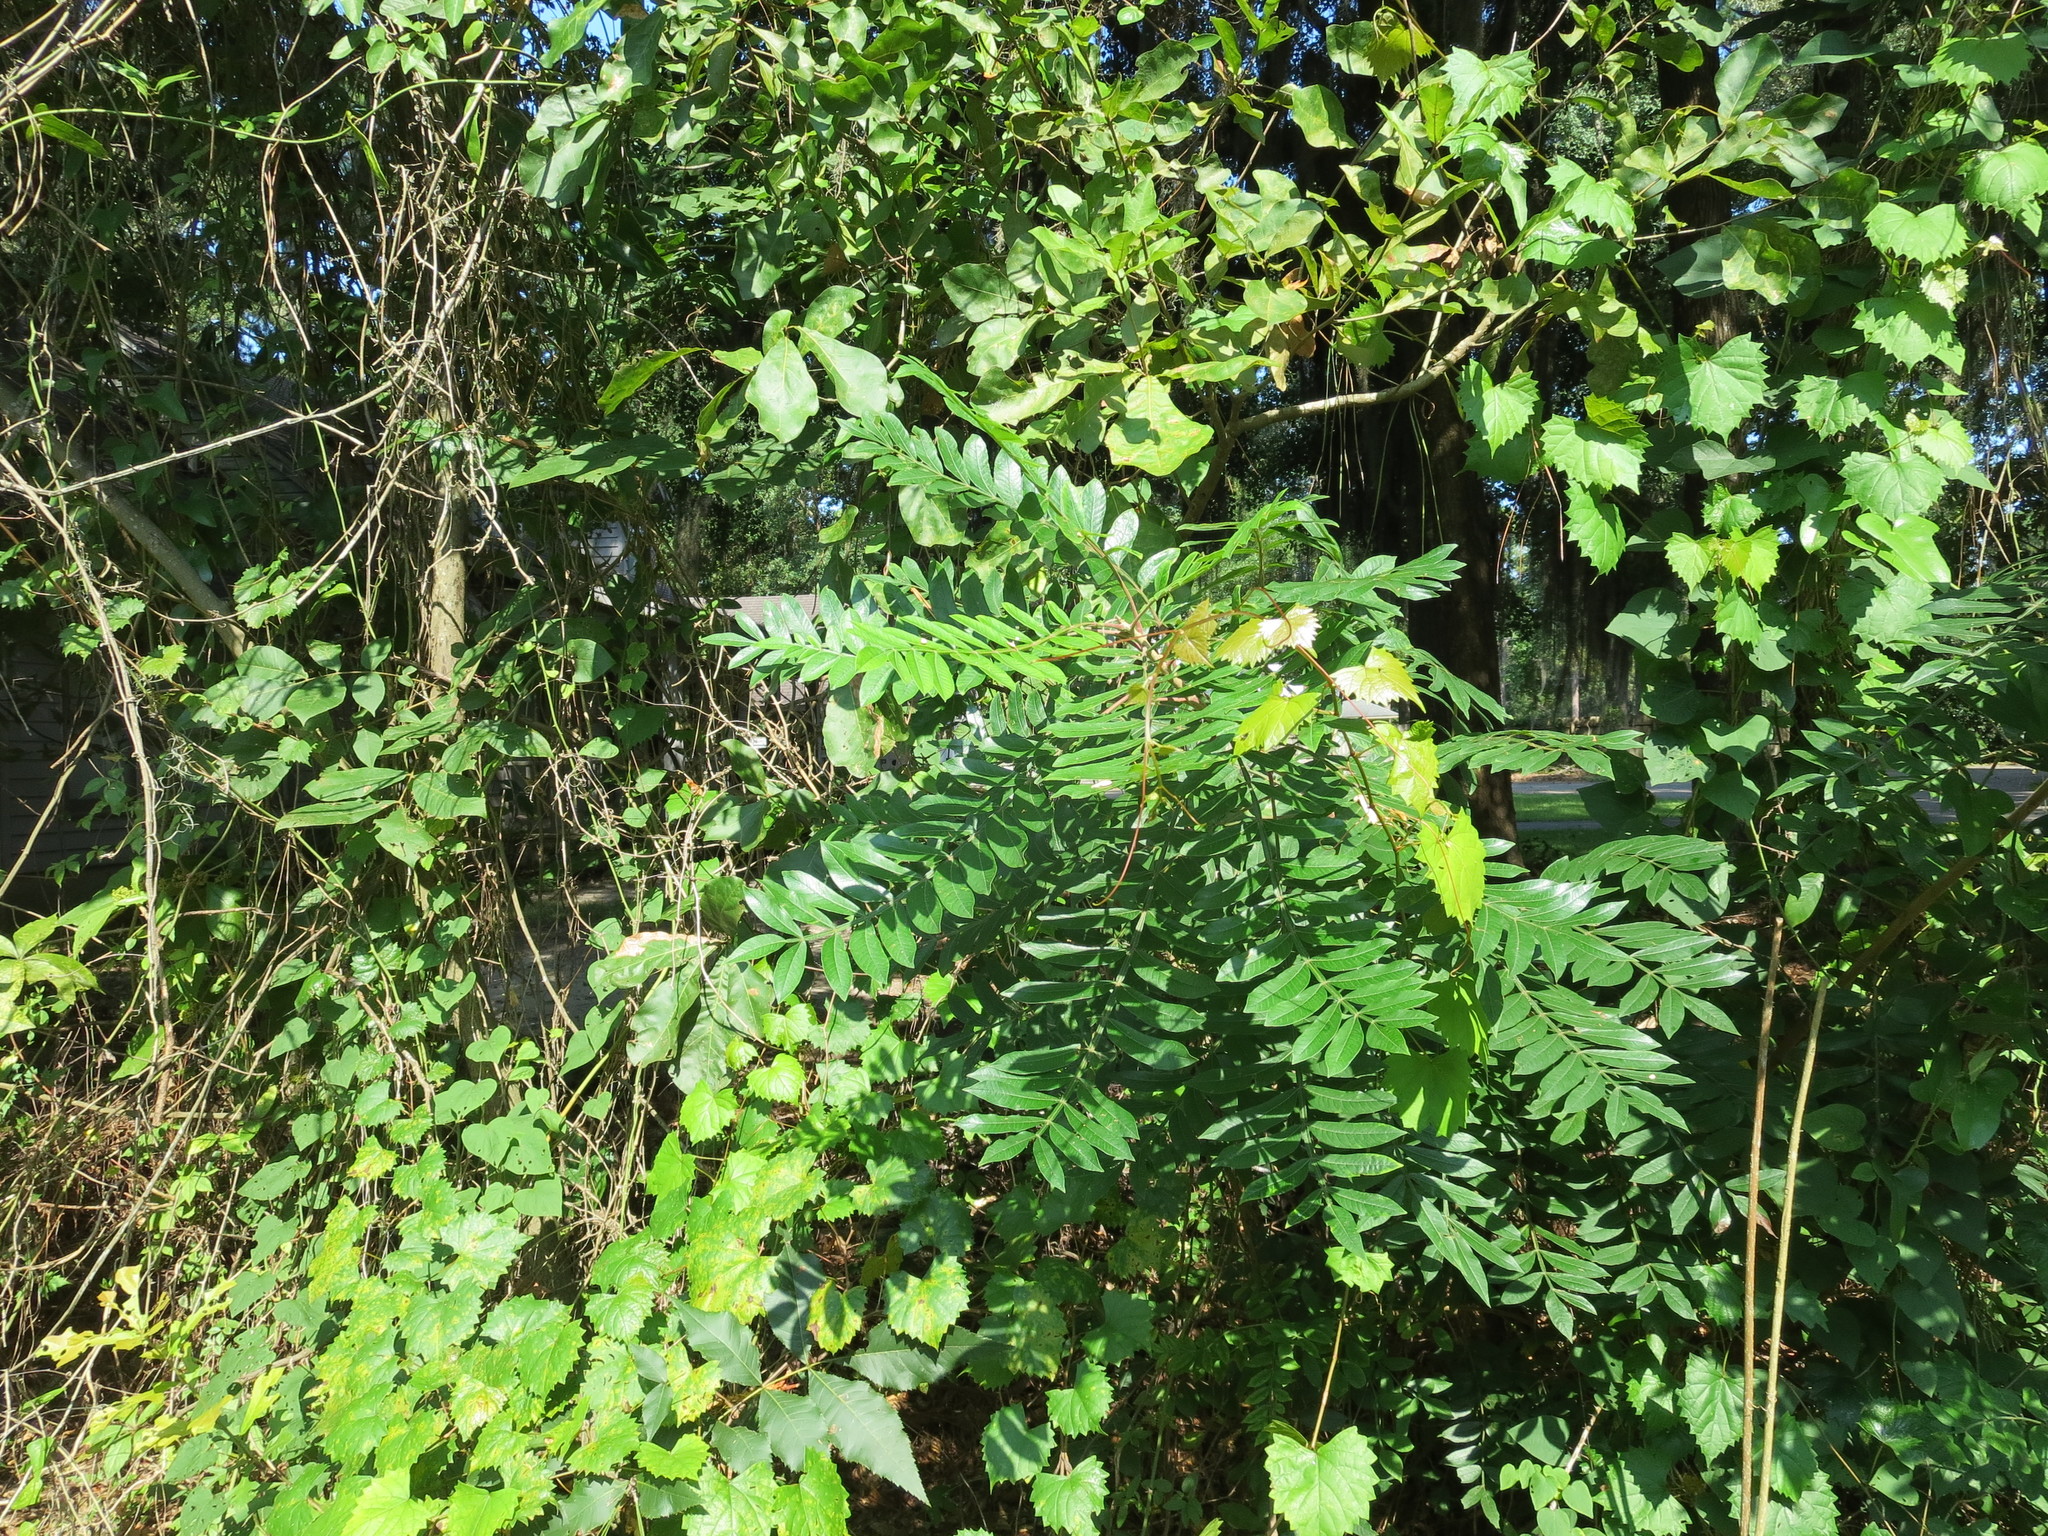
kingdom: Plantae
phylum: Tracheophyta
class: Magnoliopsida
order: Sapindales
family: Anacardiaceae
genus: Rhus
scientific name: Rhus copallina
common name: Shining sumac
